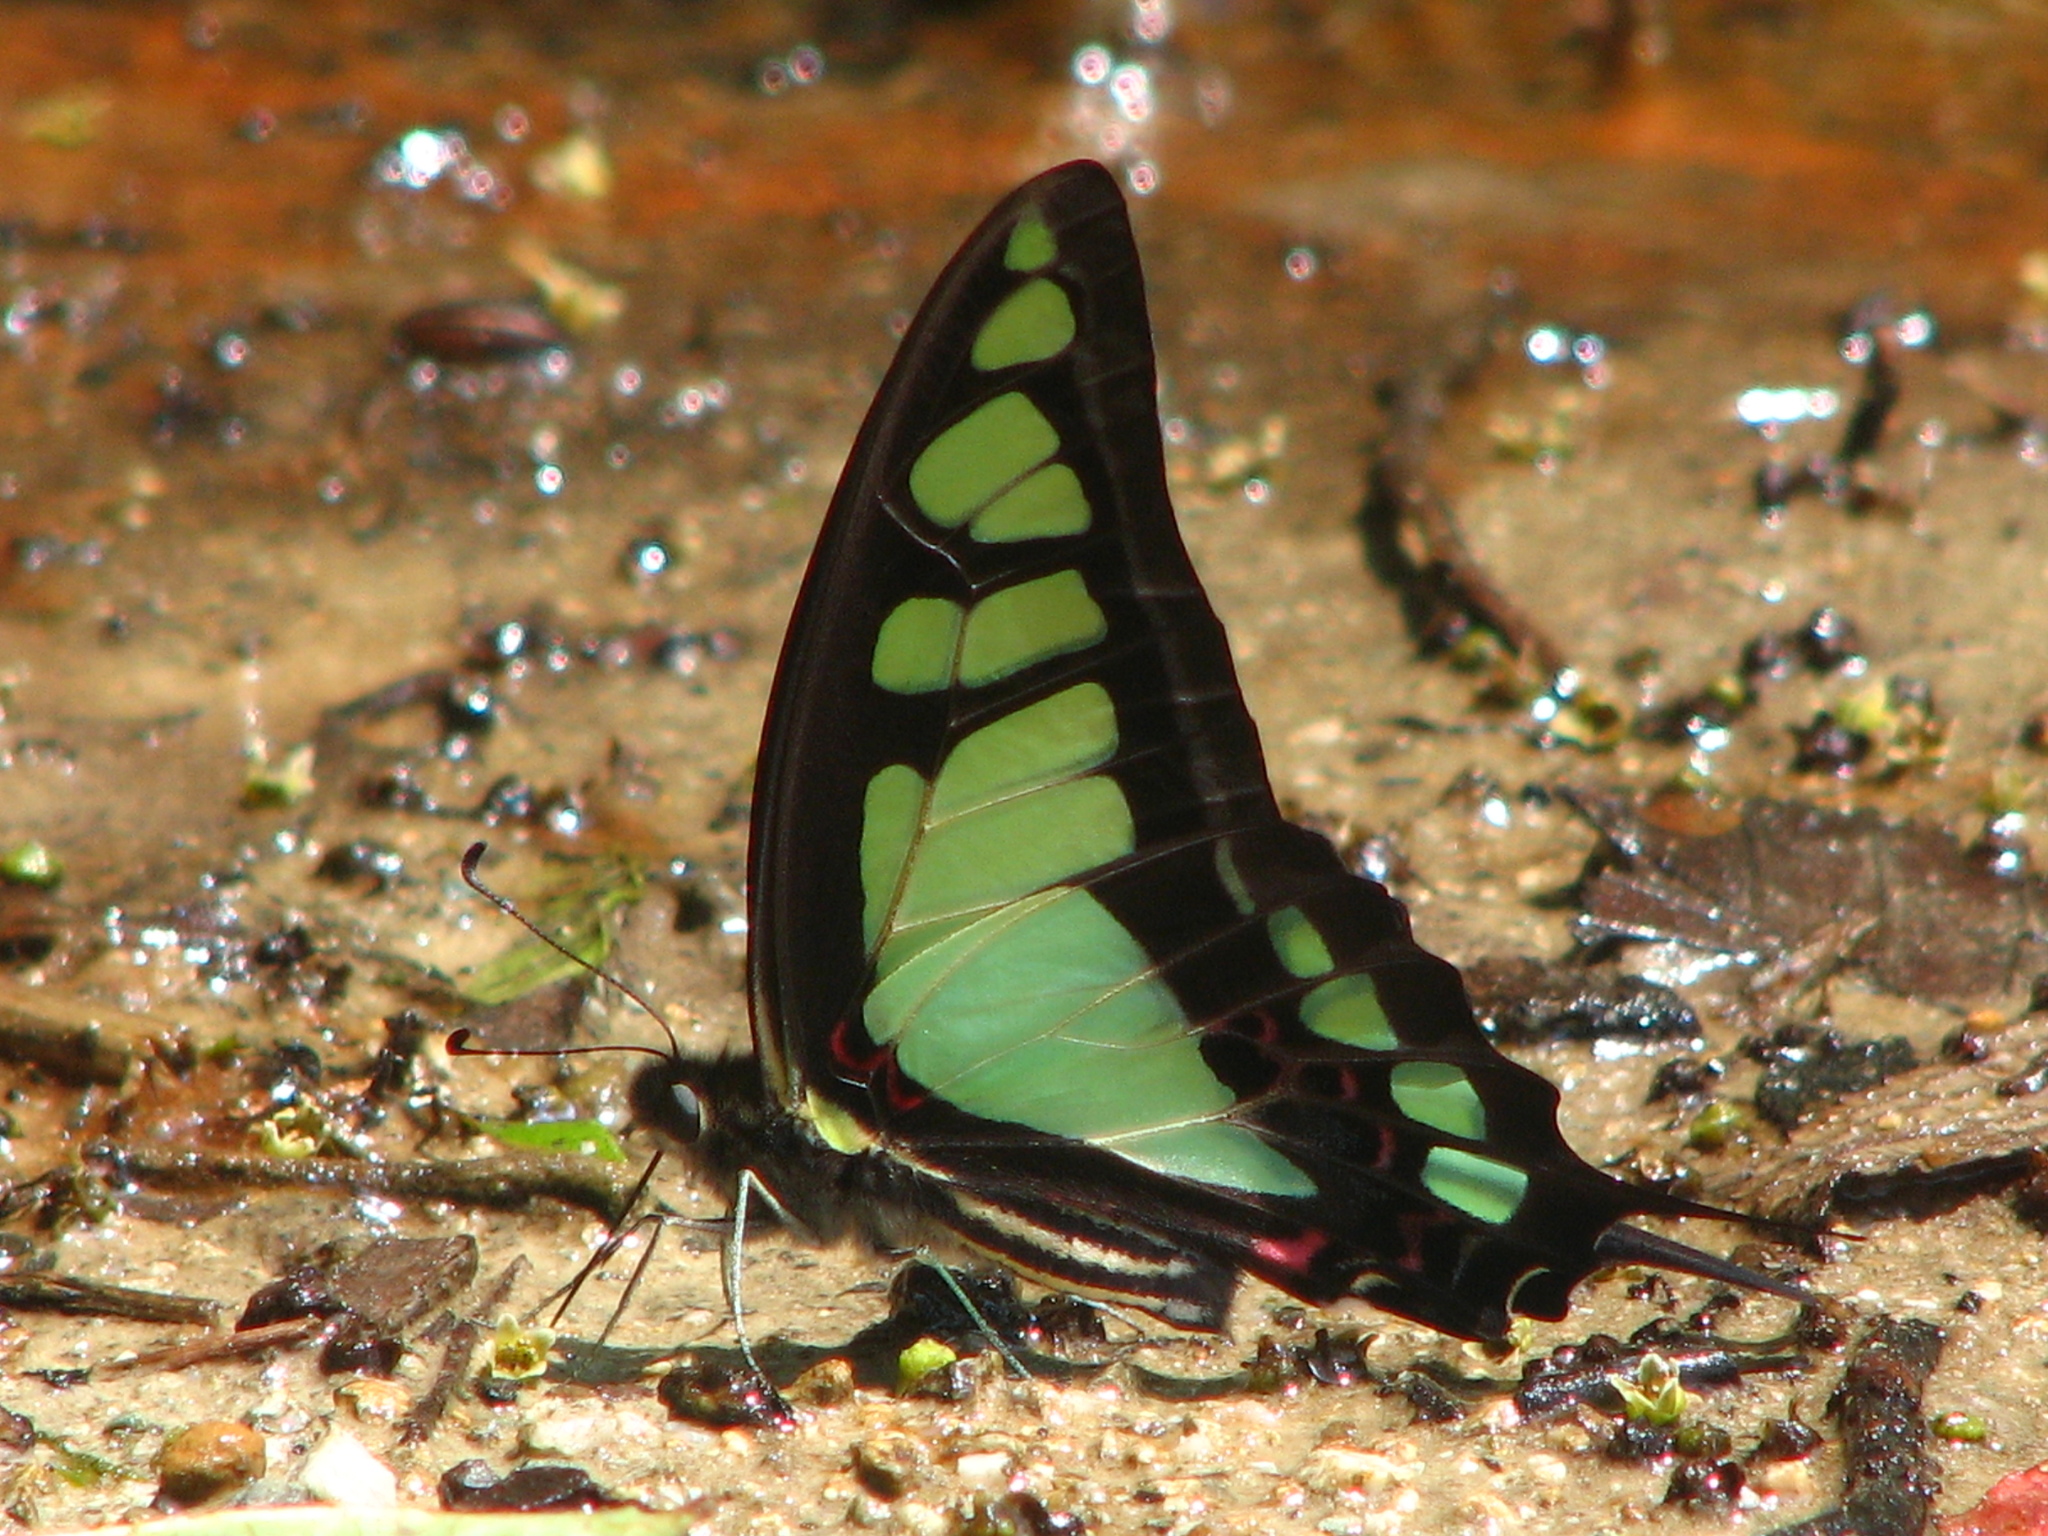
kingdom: Animalia
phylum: Arthropoda
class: Insecta
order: Lepidoptera
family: Papilionidae
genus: Graphium
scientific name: Graphium cloanthus
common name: Glassy bluebottle
